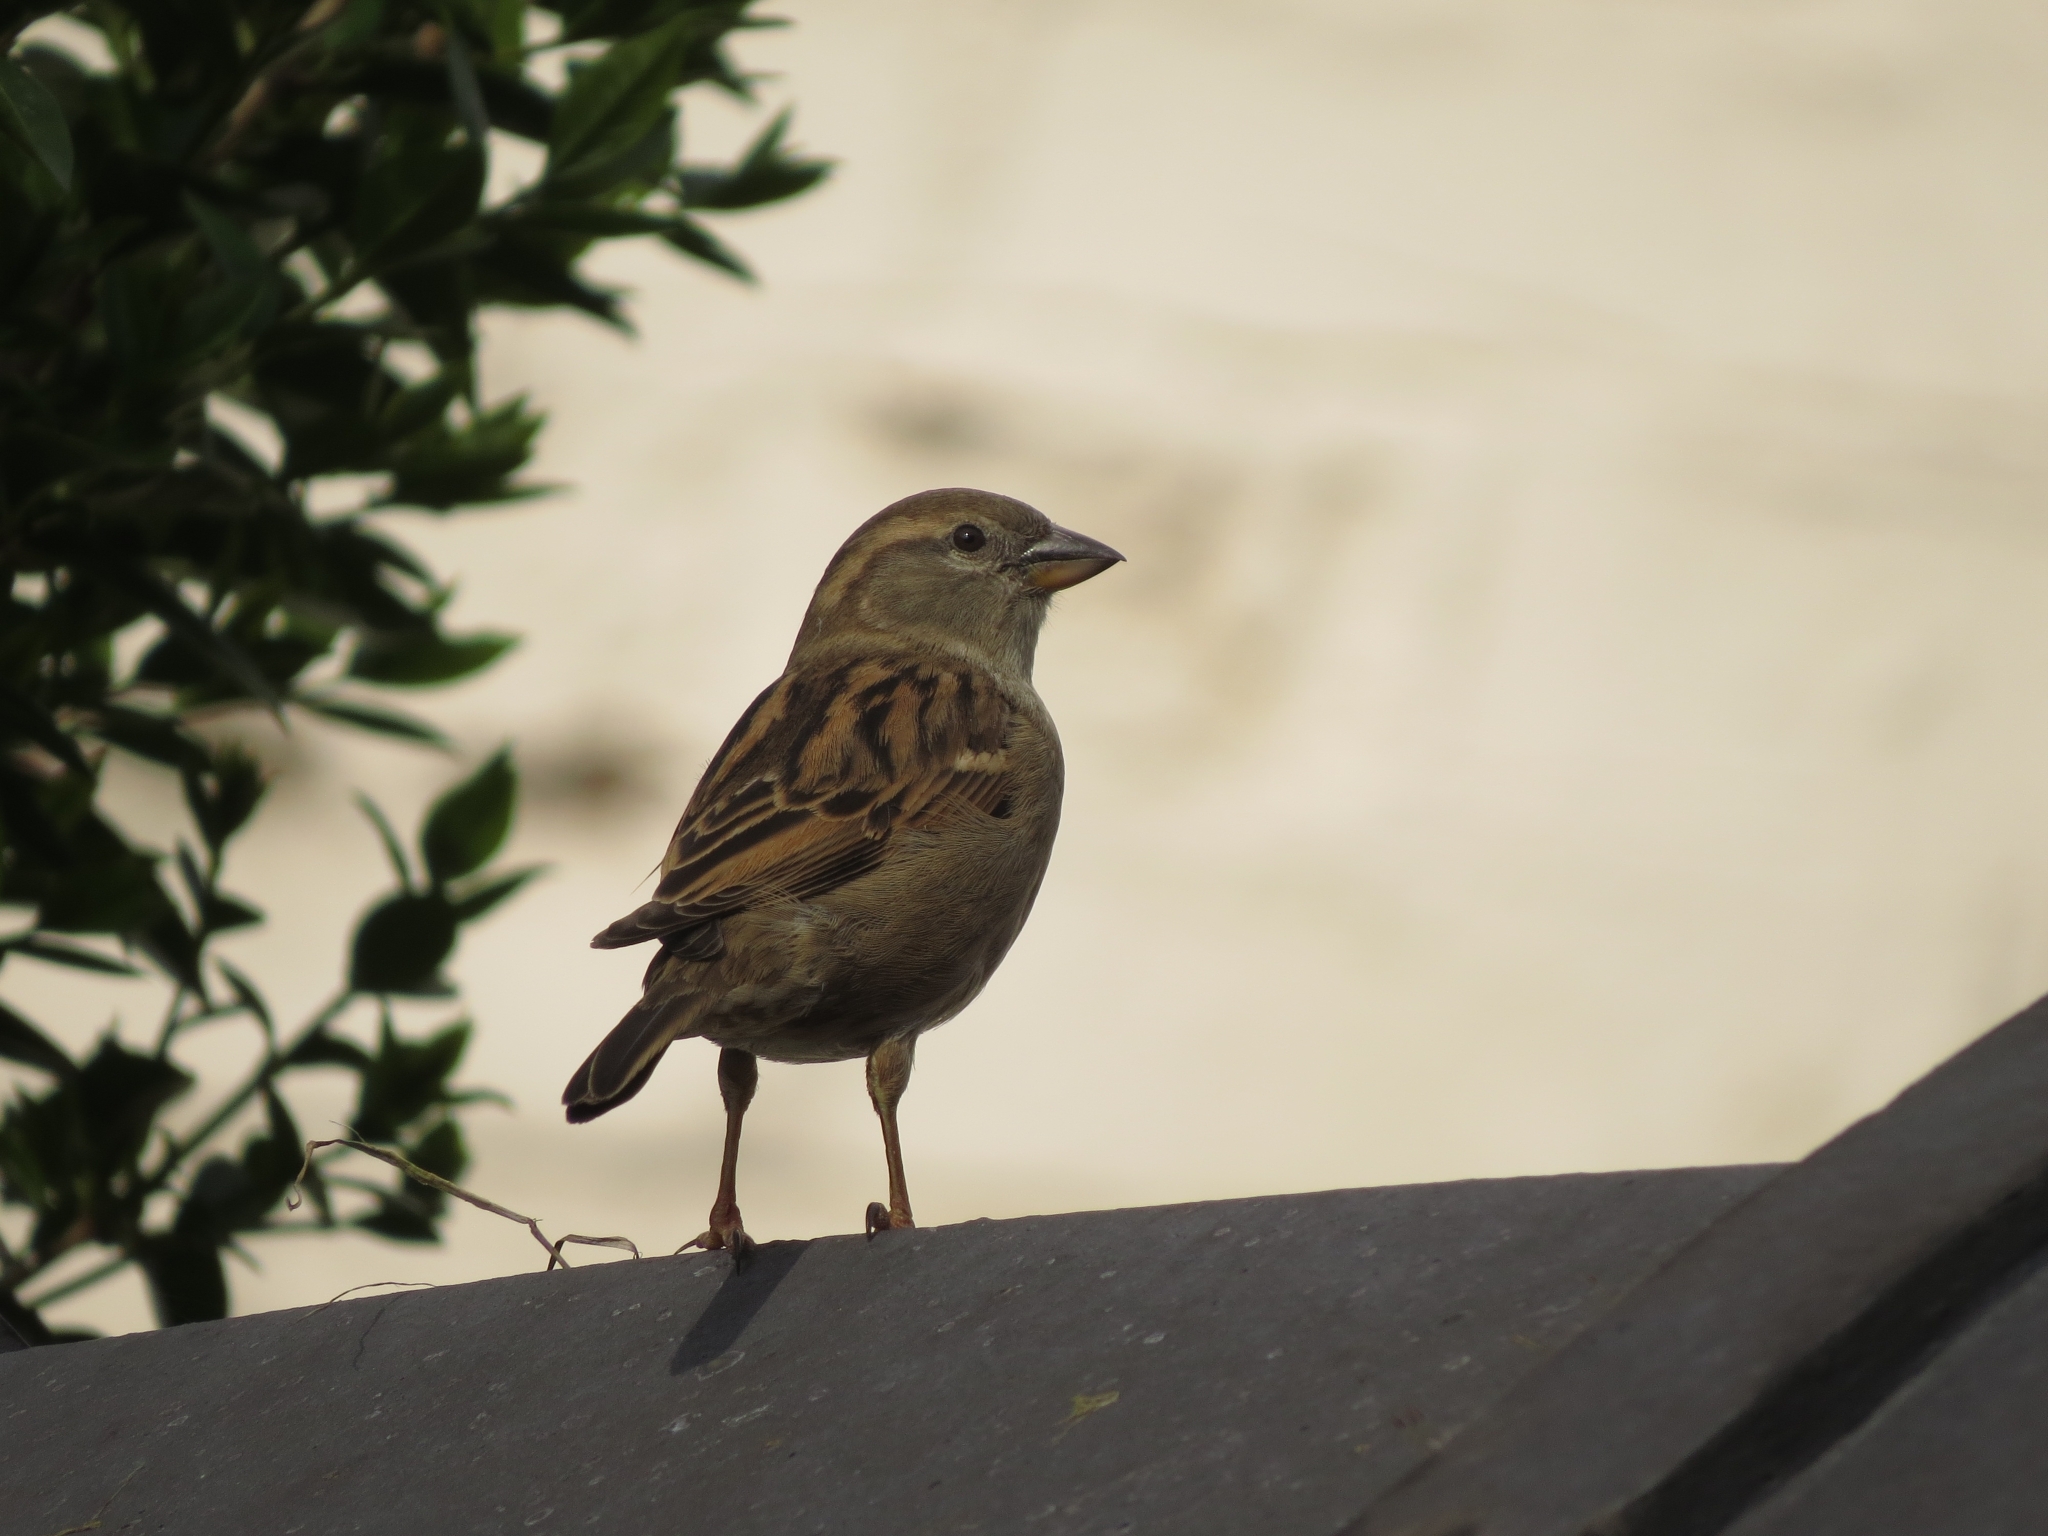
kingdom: Animalia
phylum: Chordata
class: Aves
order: Passeriformes
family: Passeridae
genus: Passer
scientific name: Passer domesticus
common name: House sparrow
